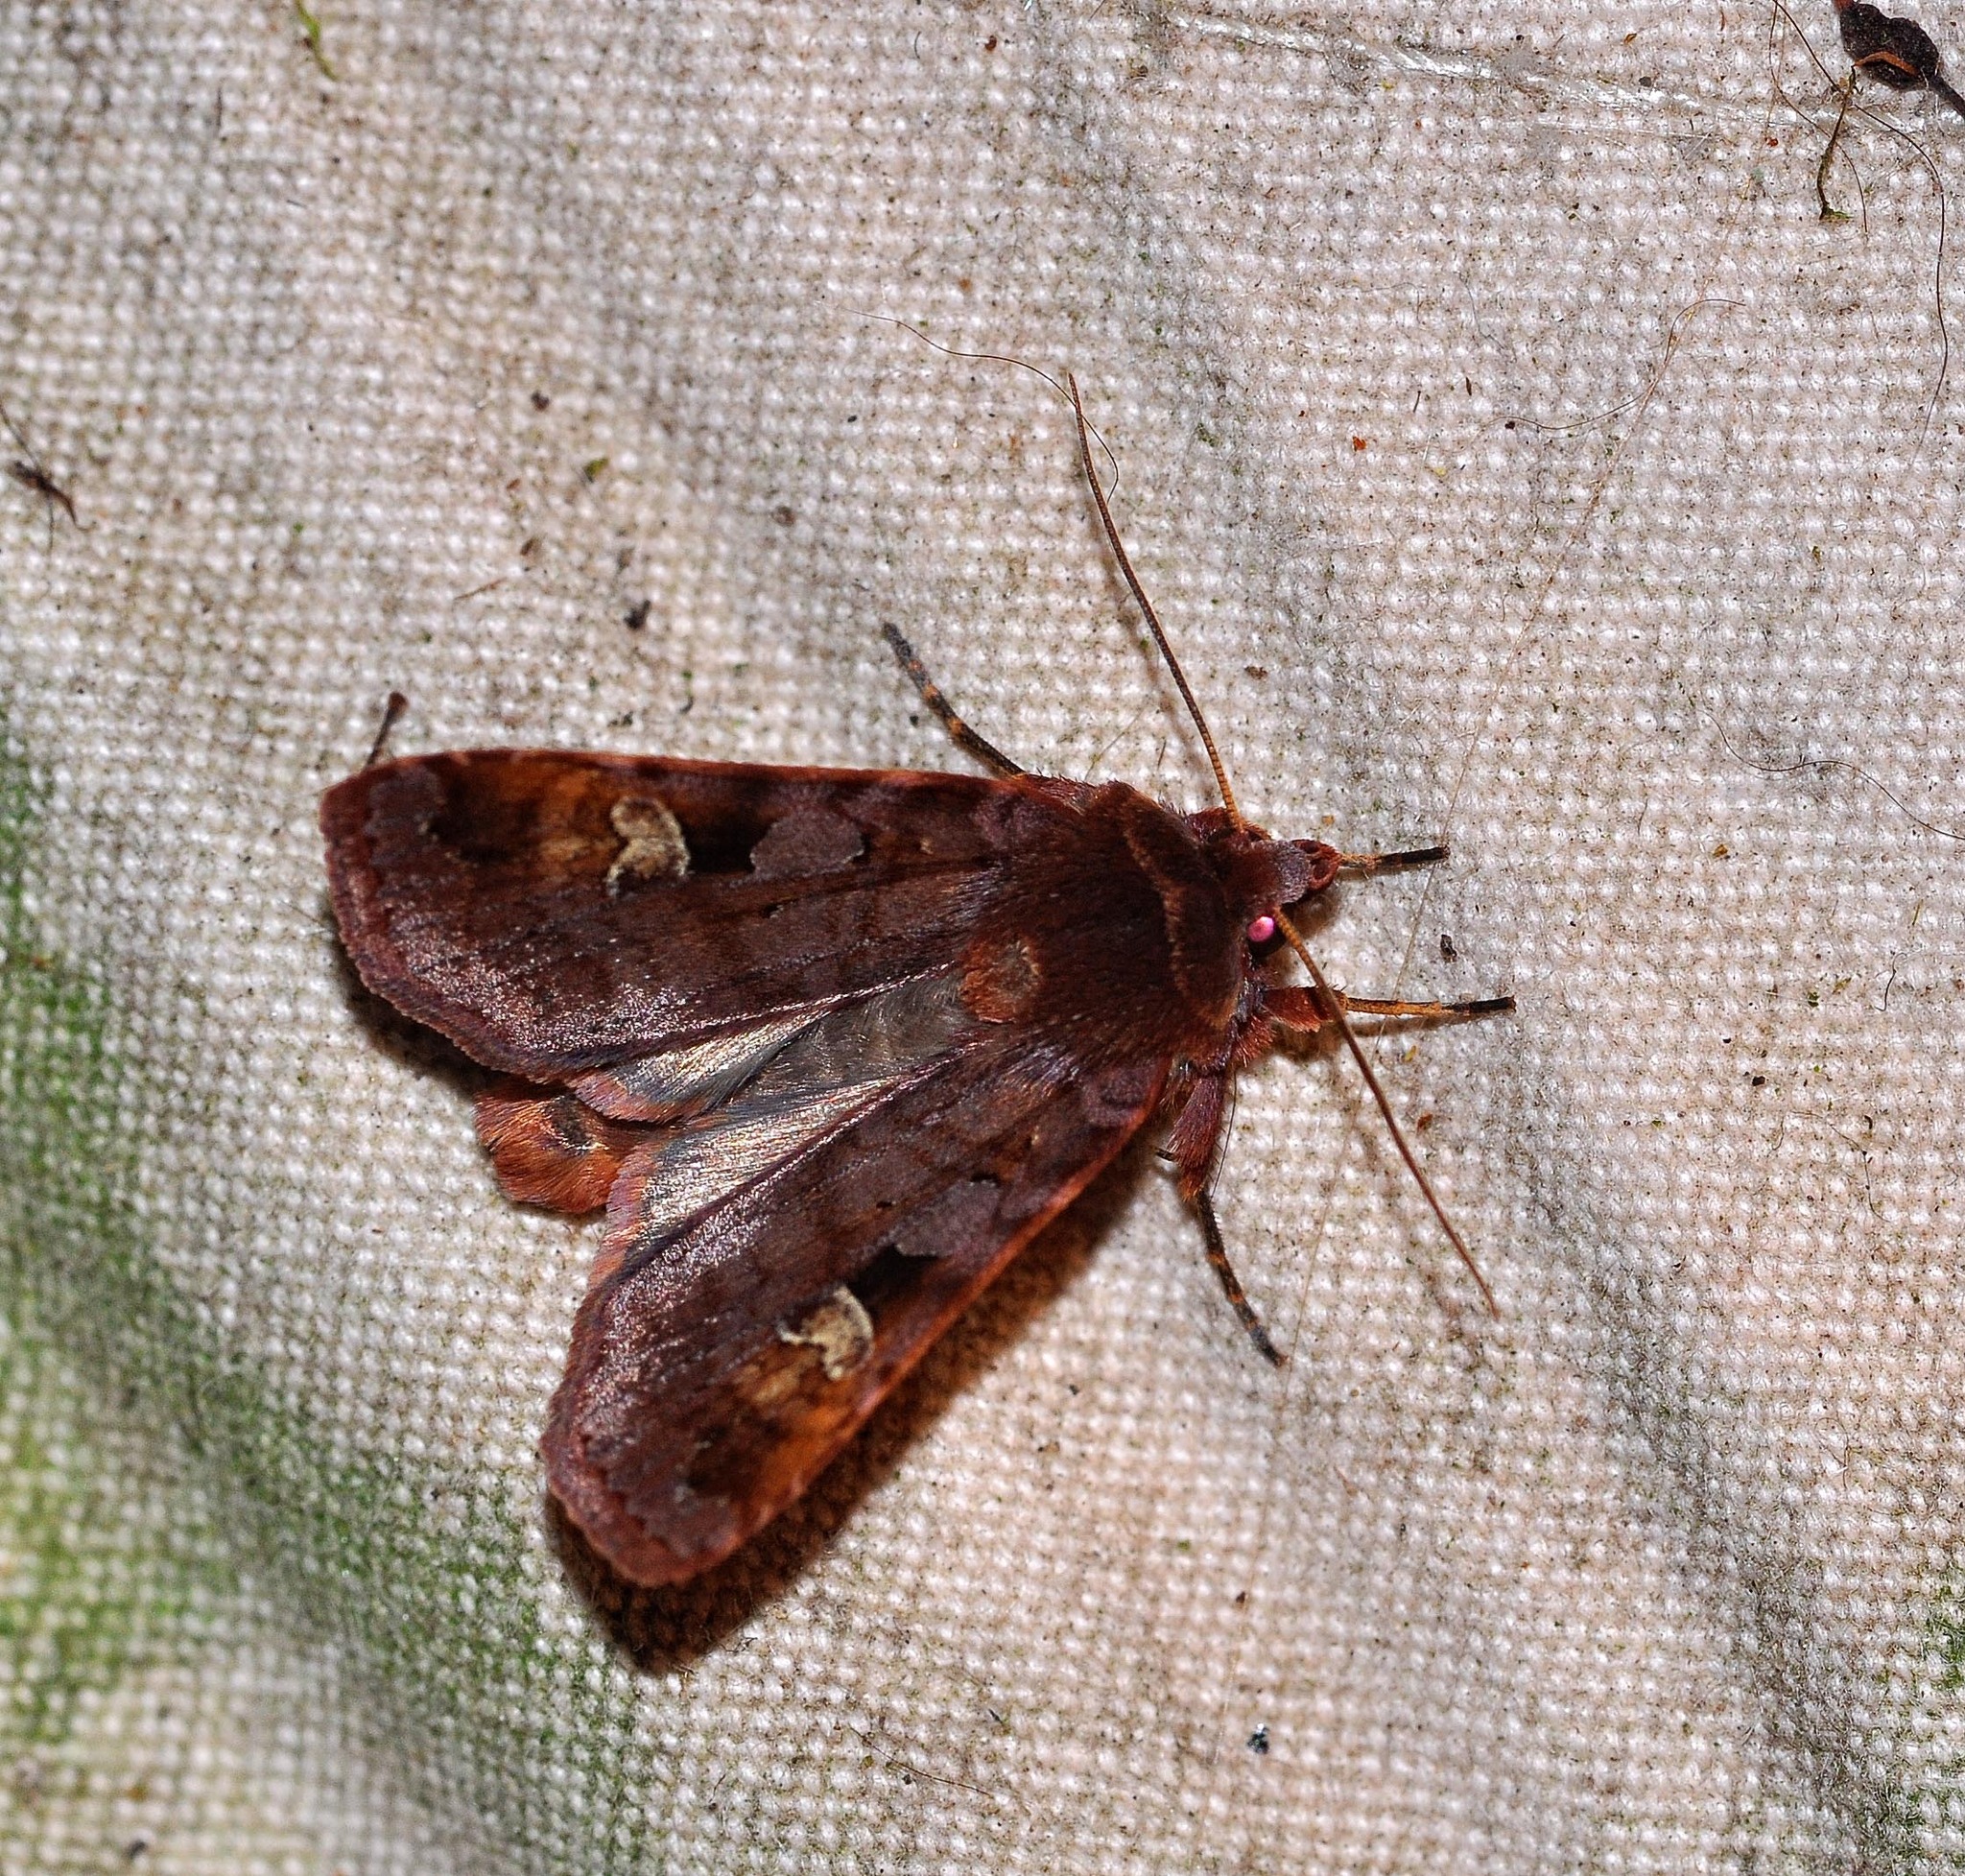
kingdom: Animalia
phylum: Arthropoda
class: Insecta
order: Lepidoptera
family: Noctuidae
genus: Diarsia
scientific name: Diarsia brunnea
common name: Purple clay
